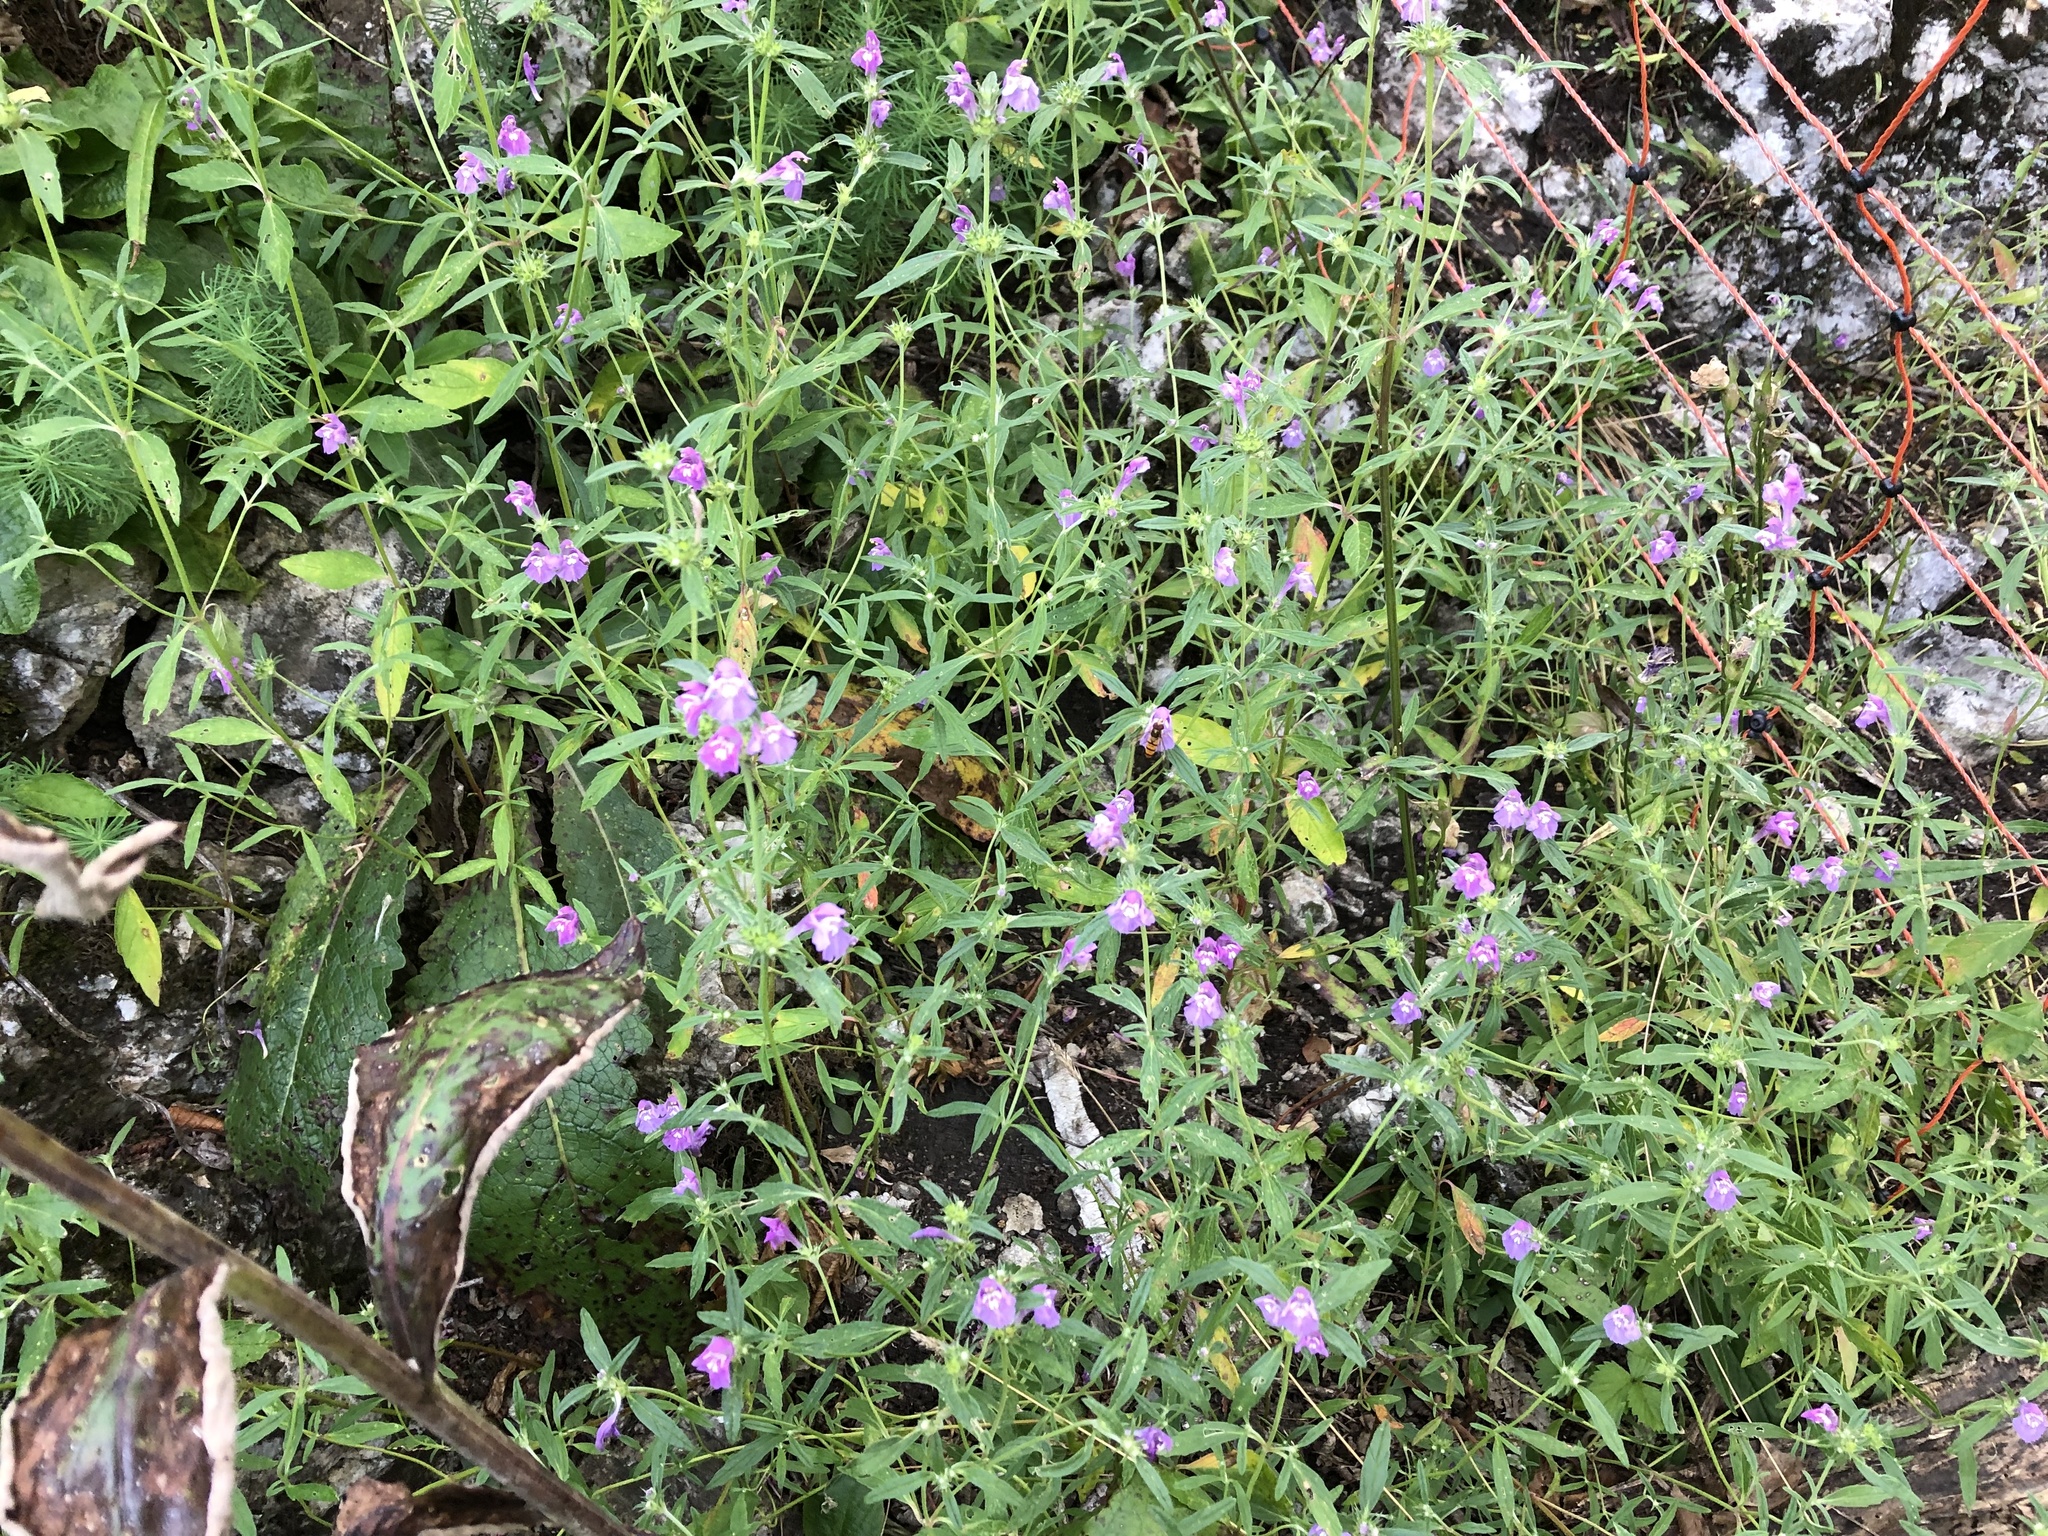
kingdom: Plantae
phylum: Tracheophyta
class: Magnoliopsida
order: Lamiales
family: Lamiaceae
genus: Galeopsis
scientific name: Galeopsis angustifolia
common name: Red hemp-nettle
